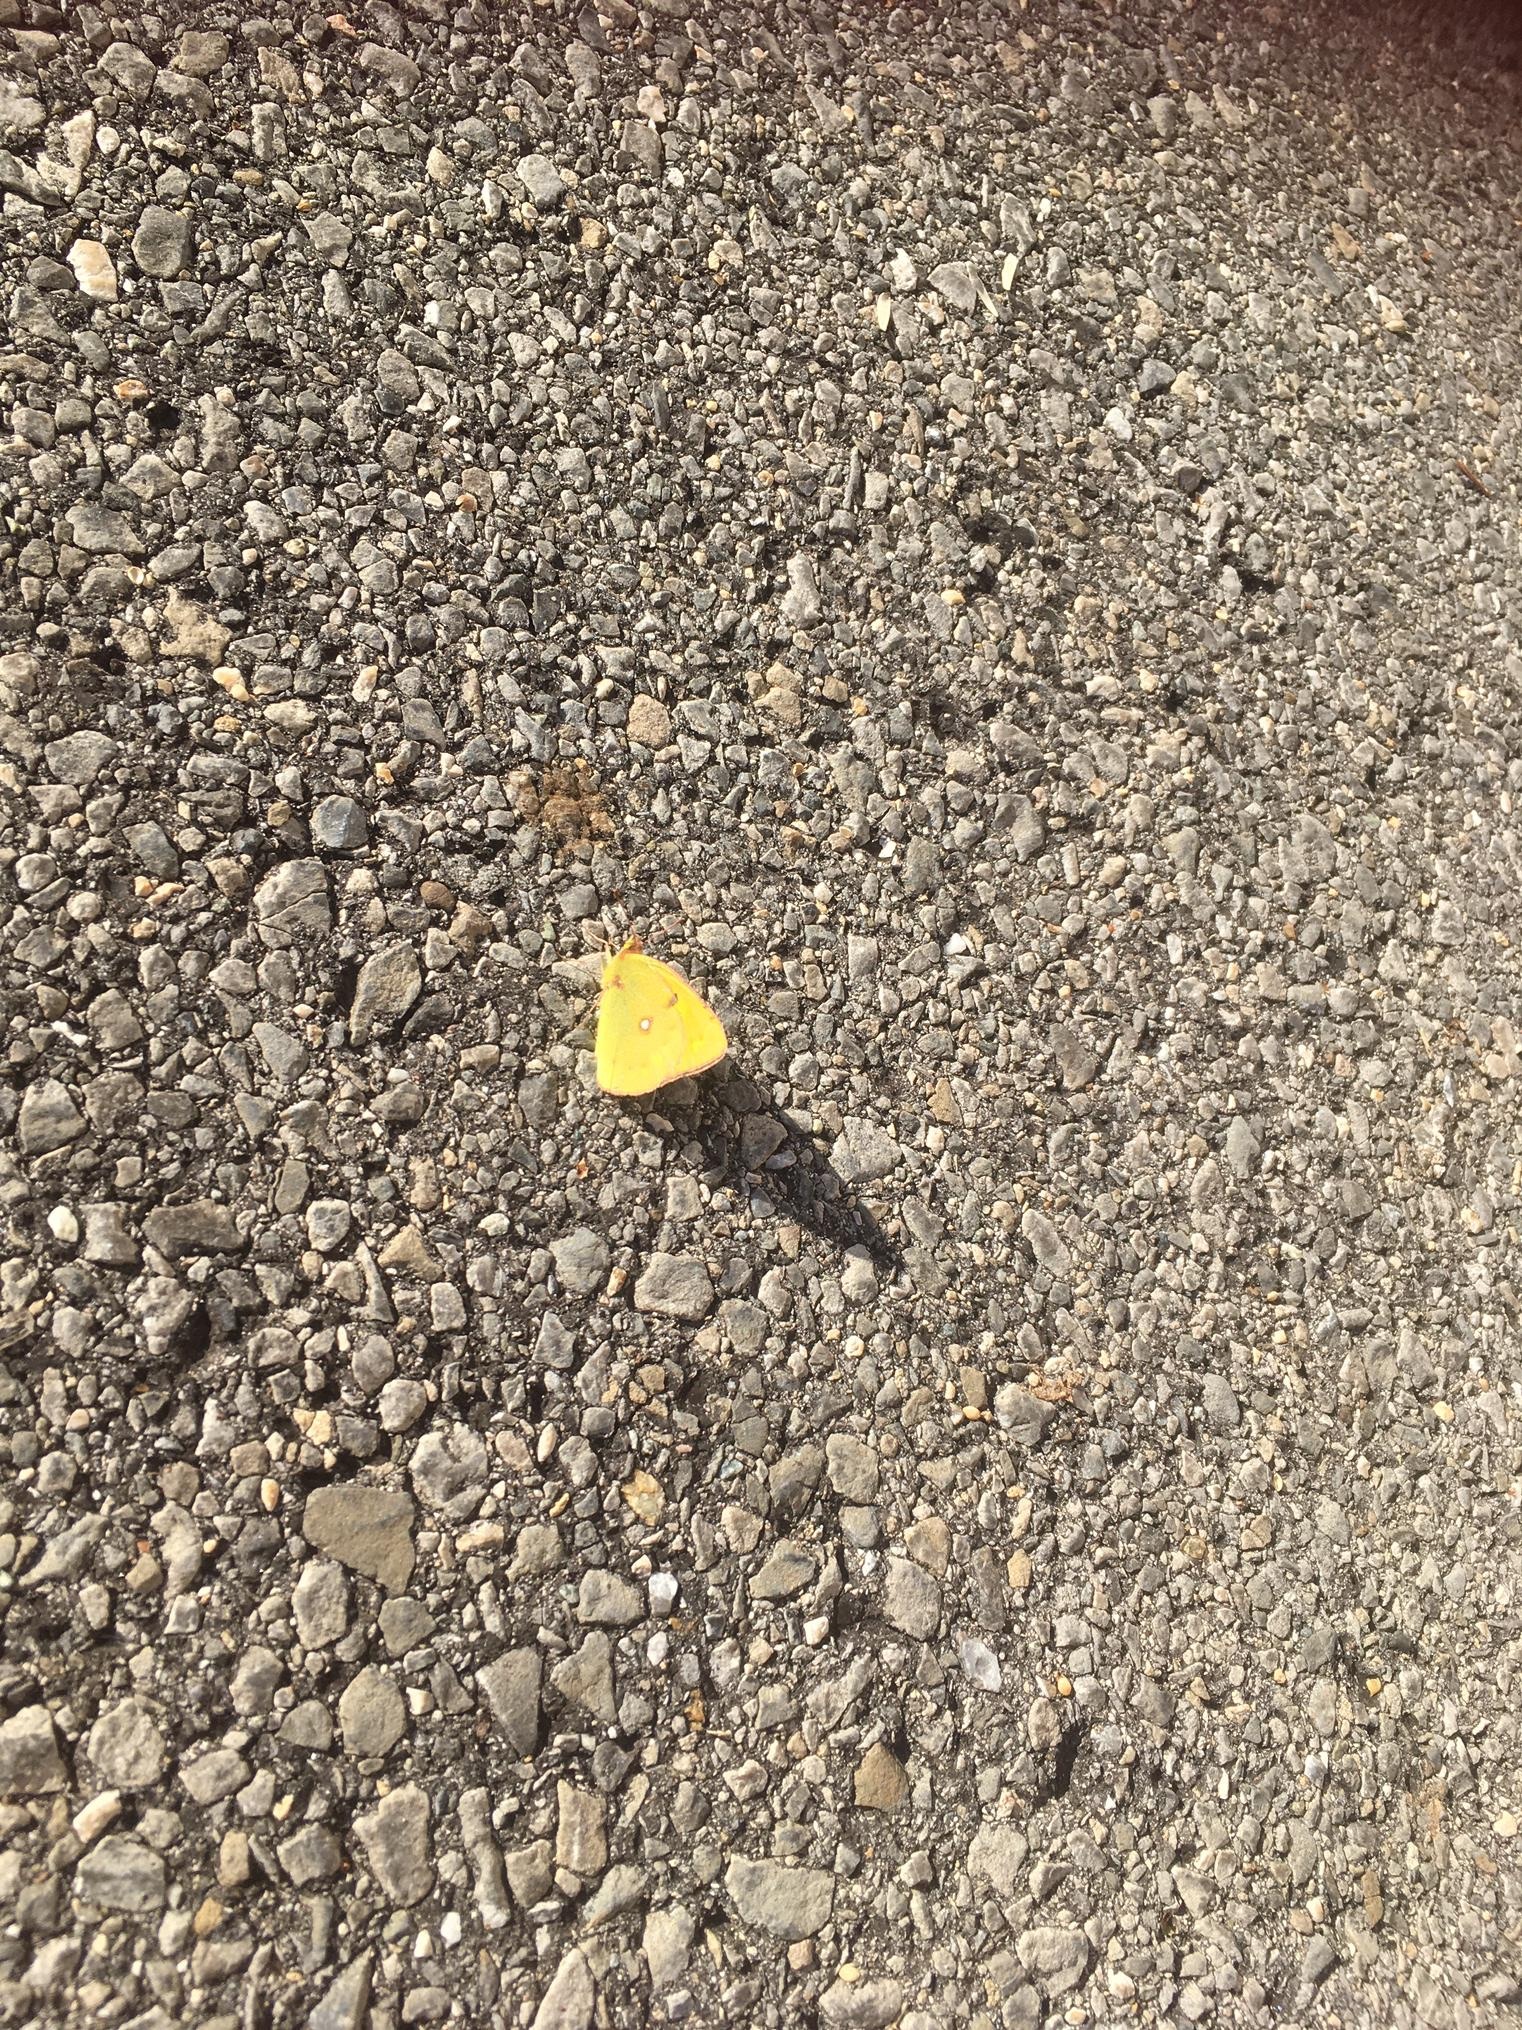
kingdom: Animalia
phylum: Arthropoda
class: Insecta
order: Lepidoptera
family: Pieridae
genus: Colias
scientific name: Colias croceus
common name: Clouded yellow
